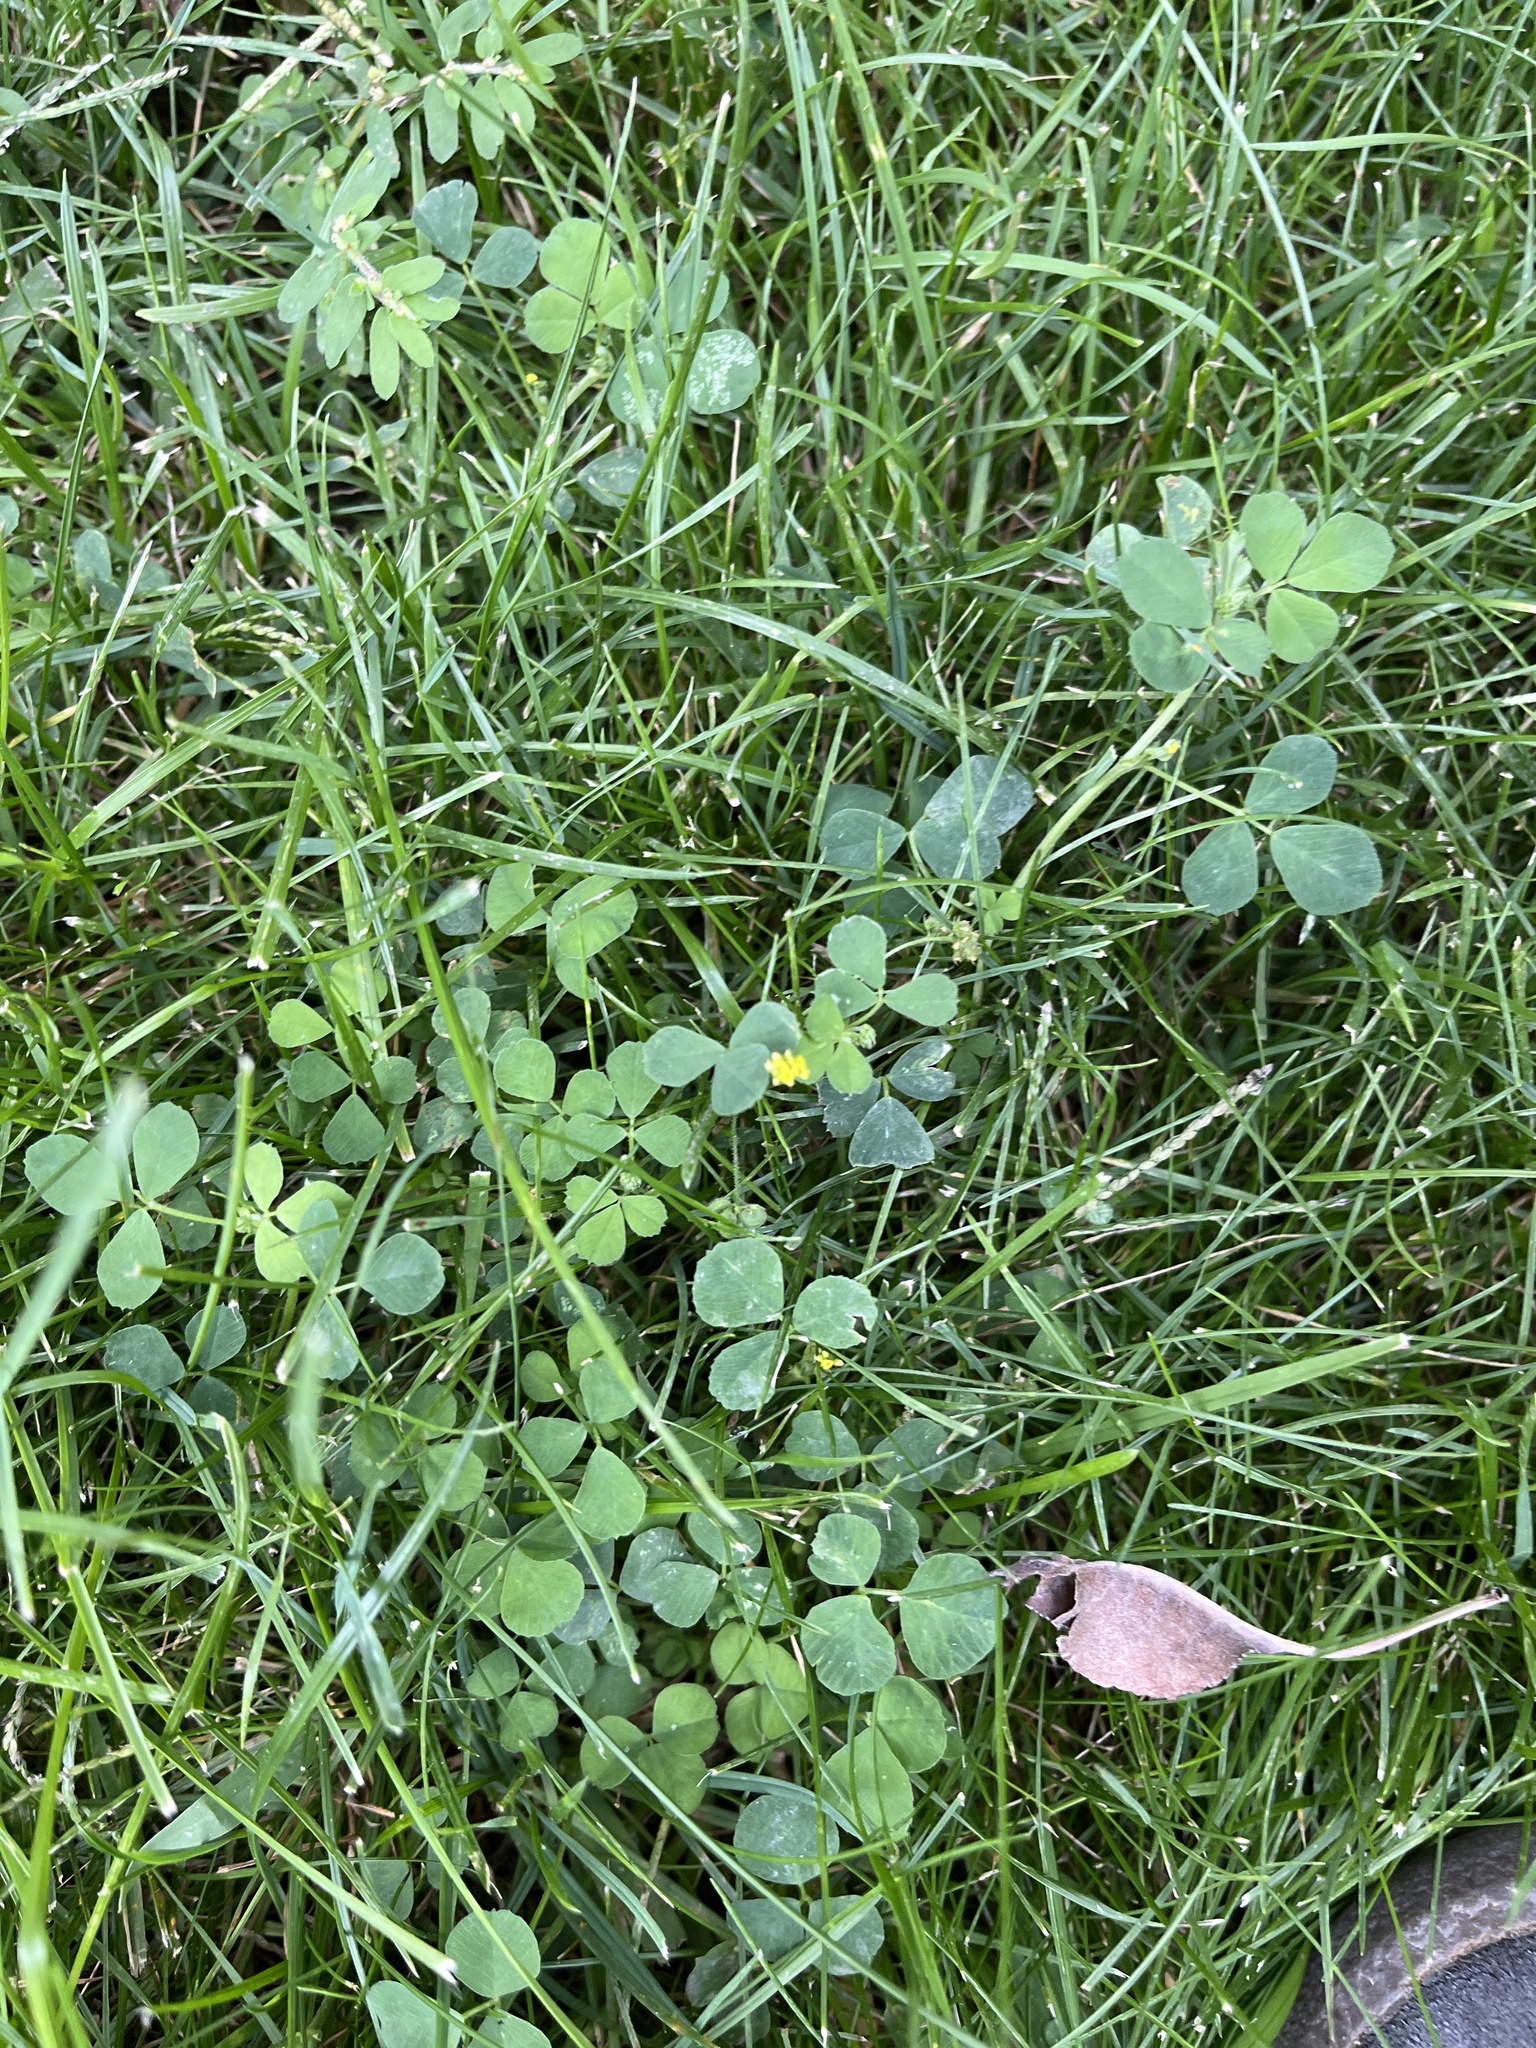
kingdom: Plantae
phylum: Tracheophyta
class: Magnoliopsida
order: Fabales
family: Fabaceae
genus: Medicago
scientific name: Medicago lupulina
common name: Black medick
